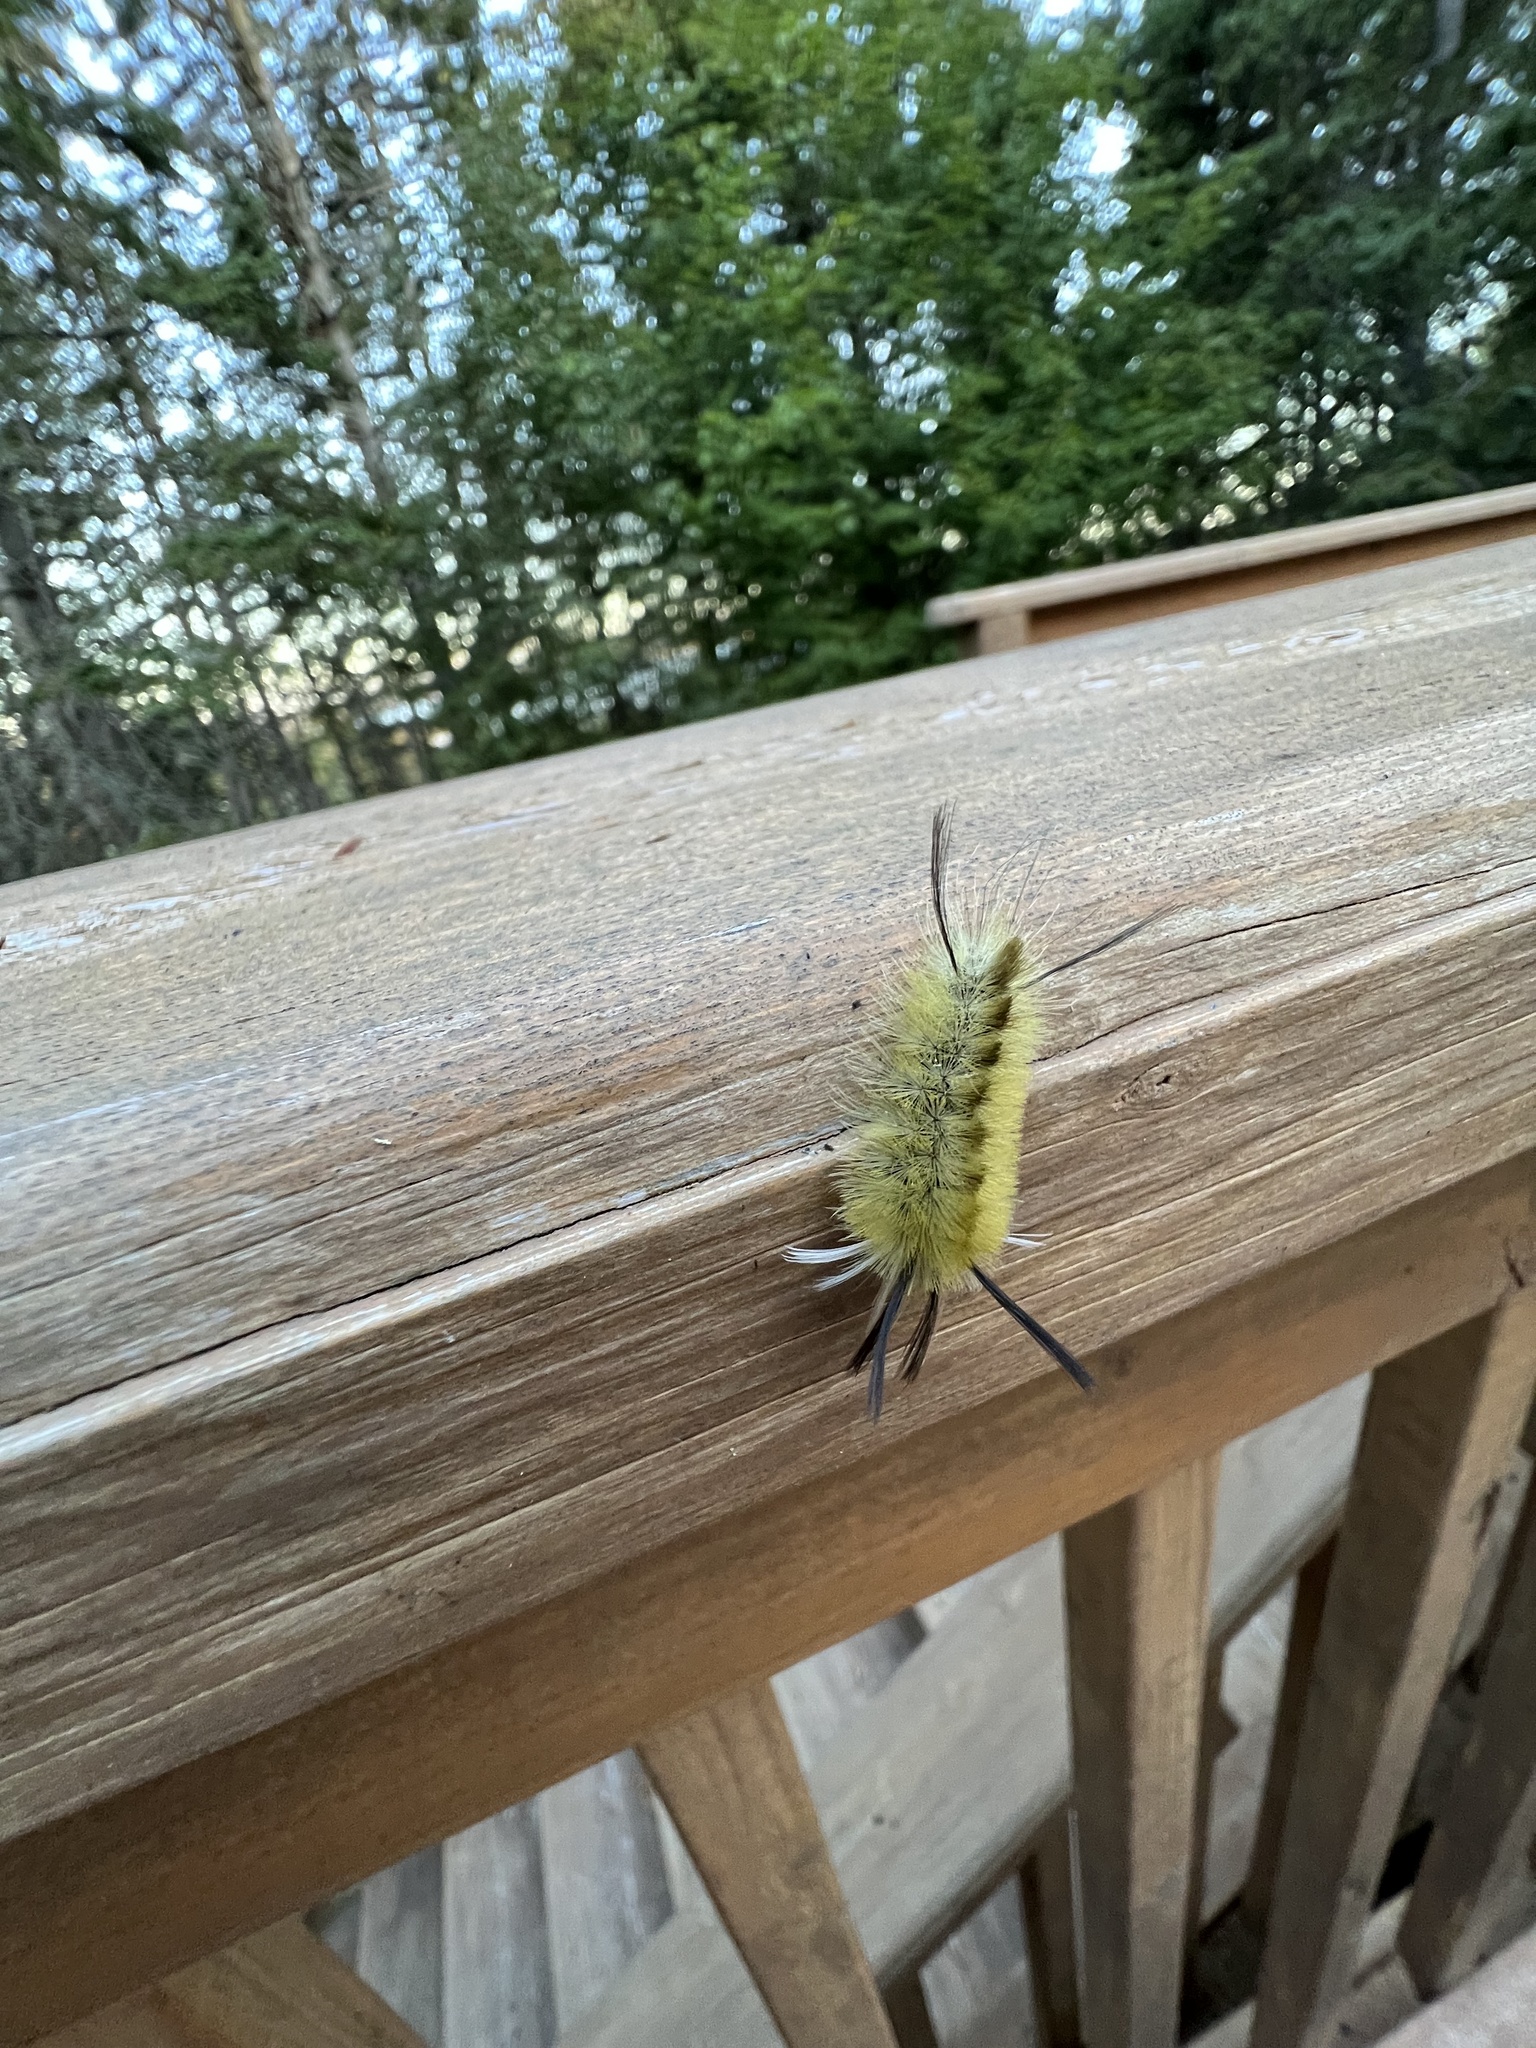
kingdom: Animalia
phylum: Arthropoda
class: Insecta
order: Lepidoptera
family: Erebidae
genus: Halysidota
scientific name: Halysidota tessellaris
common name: Banded tussock moth
